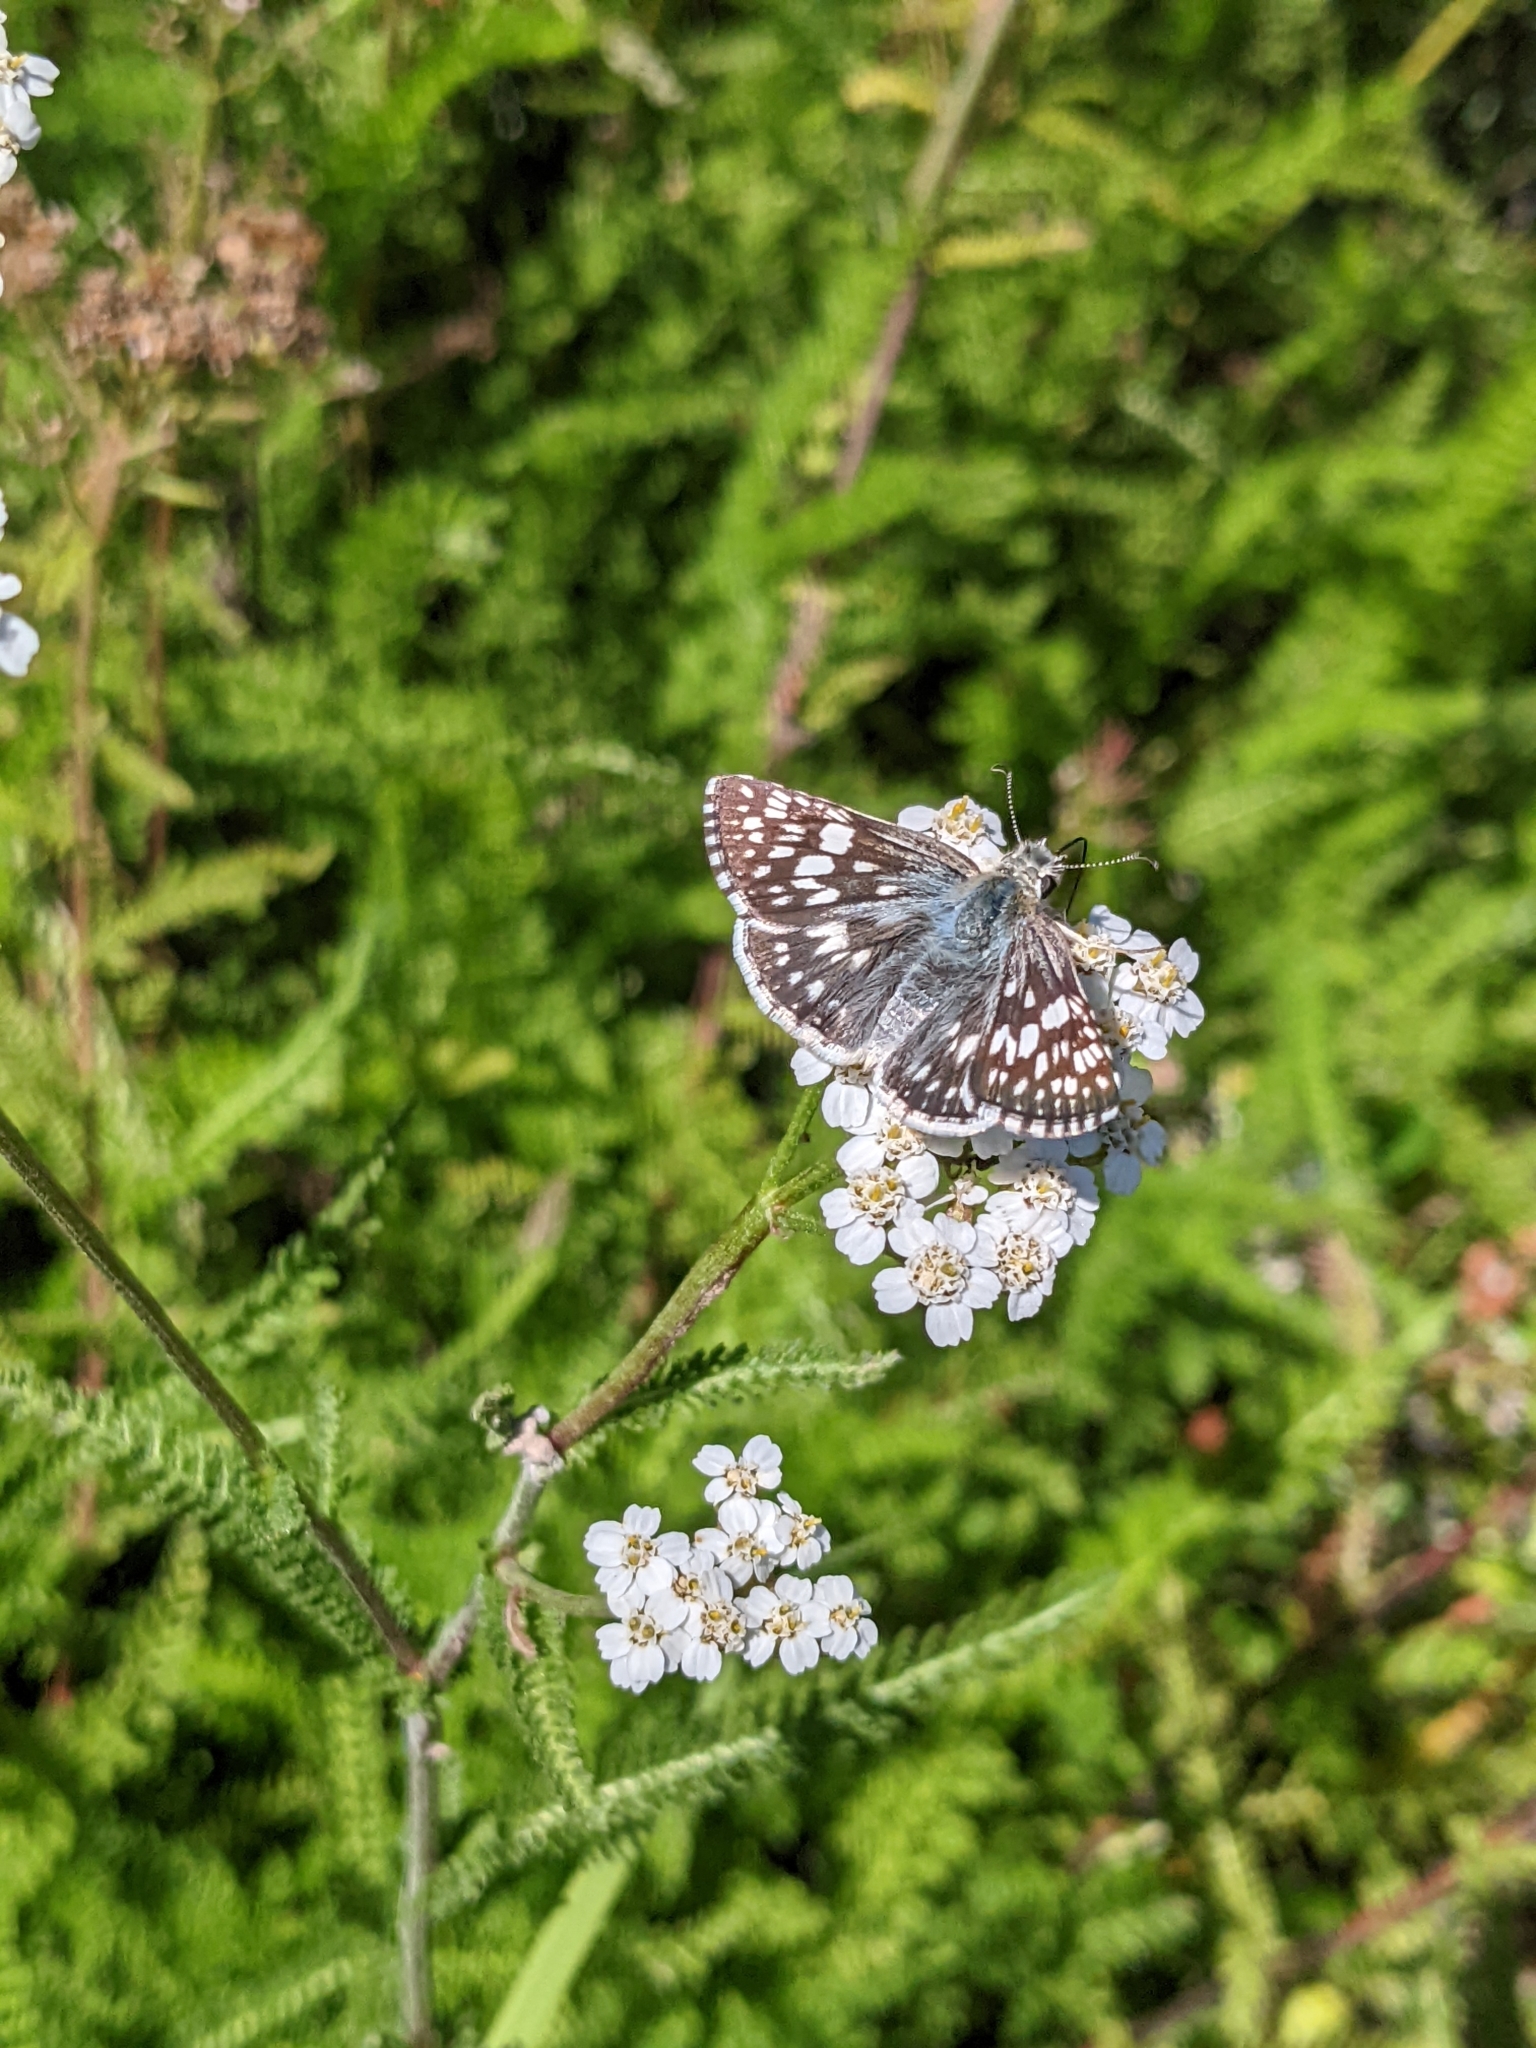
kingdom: Animalia
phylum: Arthropoda
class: Insecta
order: Lepidoptera
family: Hesperiidae
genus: Burnsius
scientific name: Burnsius communis
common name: Common checkered-skipper
